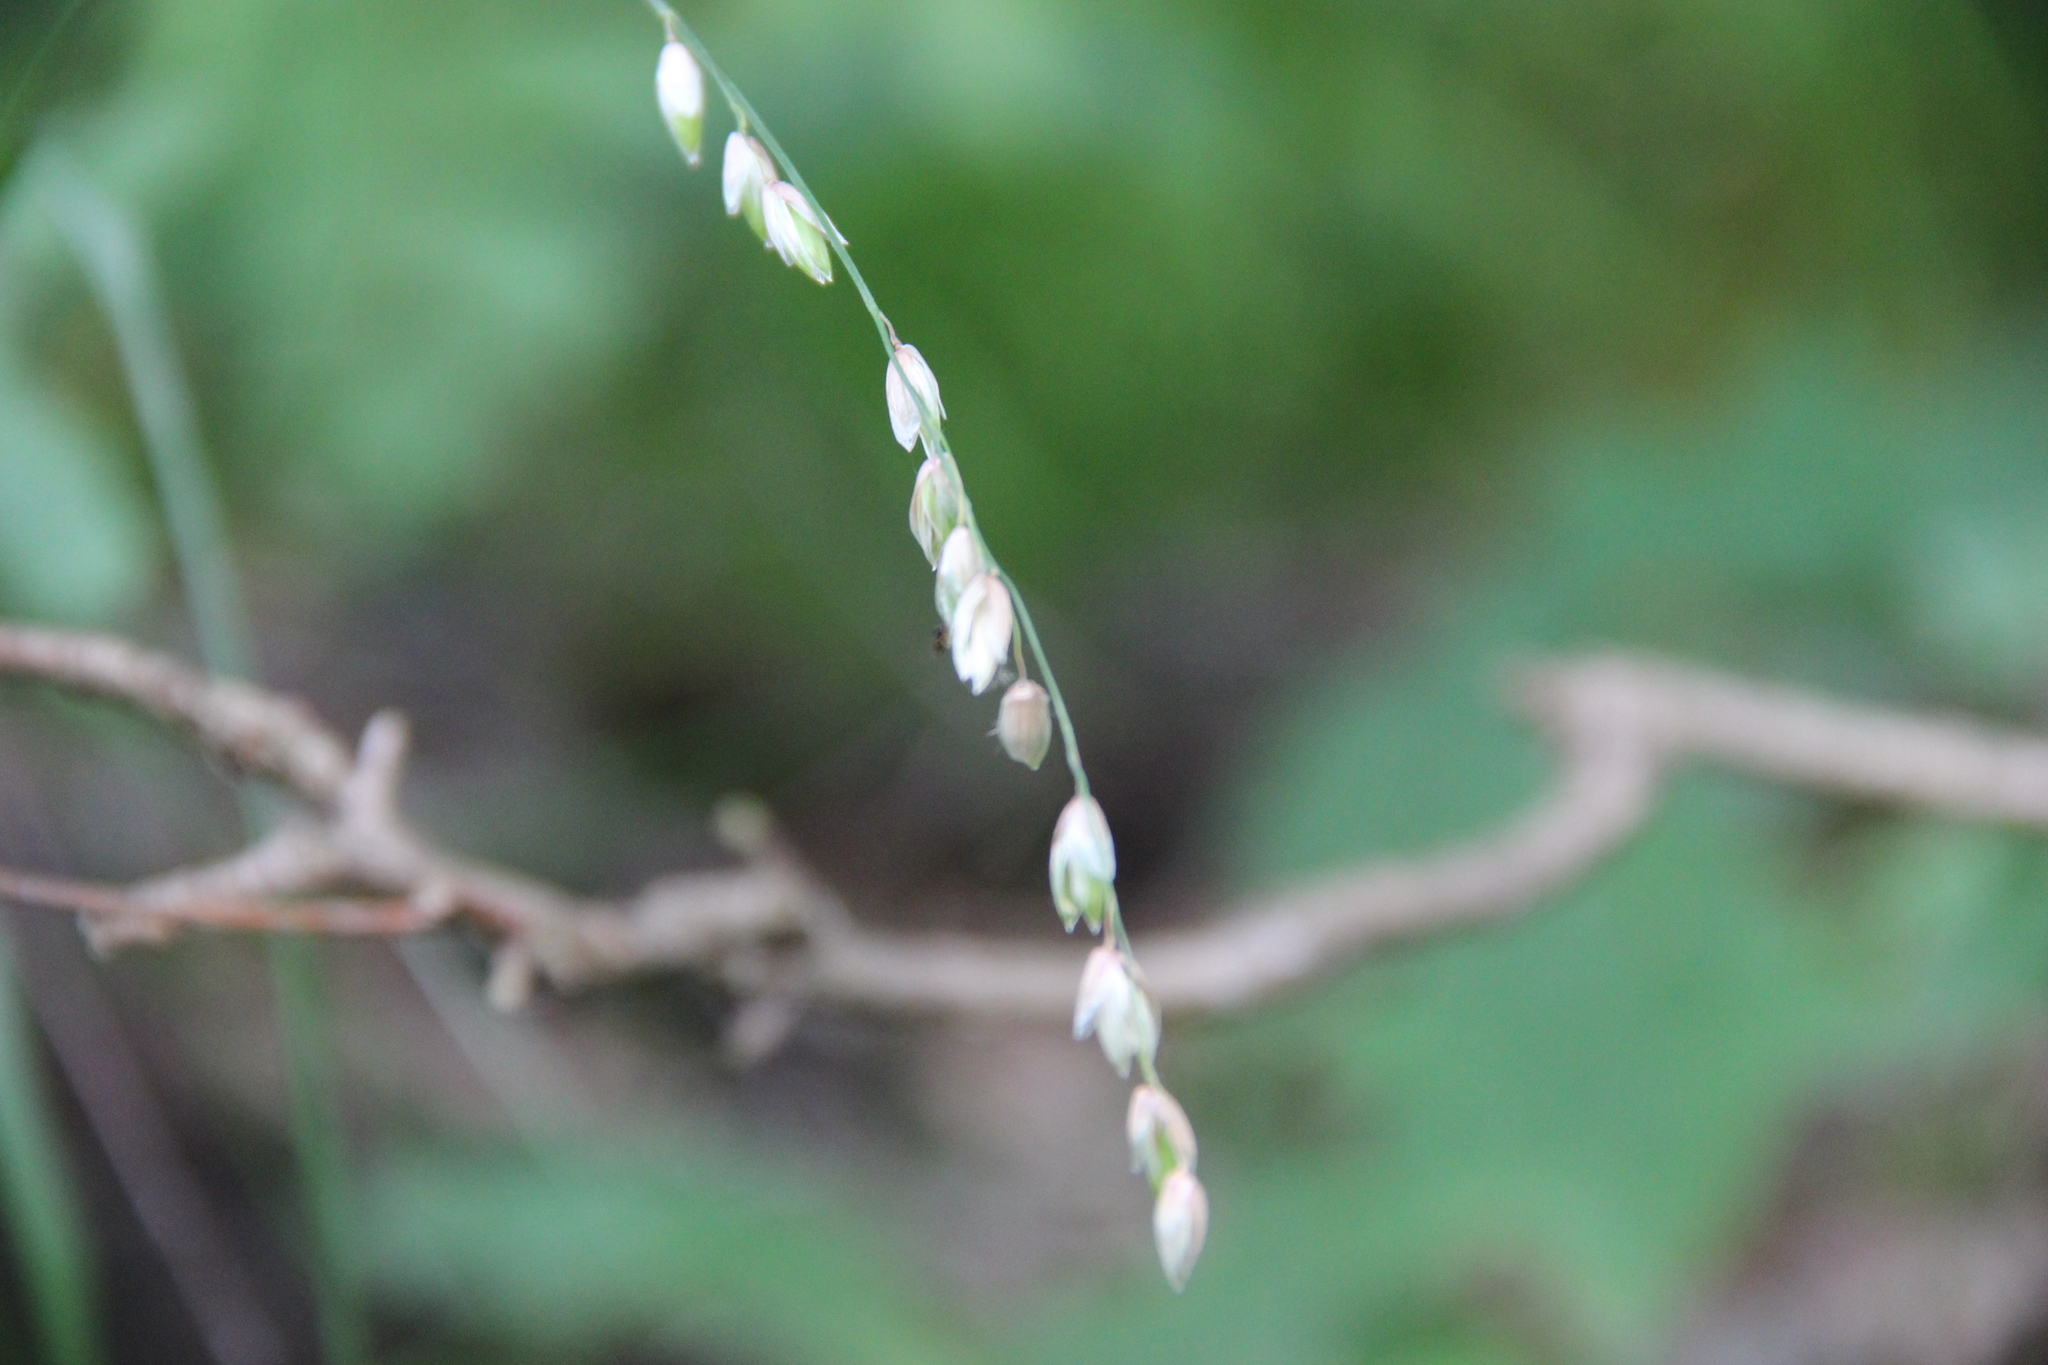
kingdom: Plantae
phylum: Tracheophyta
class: Liliopsida
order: Poales
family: Poaceae
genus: Melica
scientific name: Melica nutans
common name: Mountain melick
